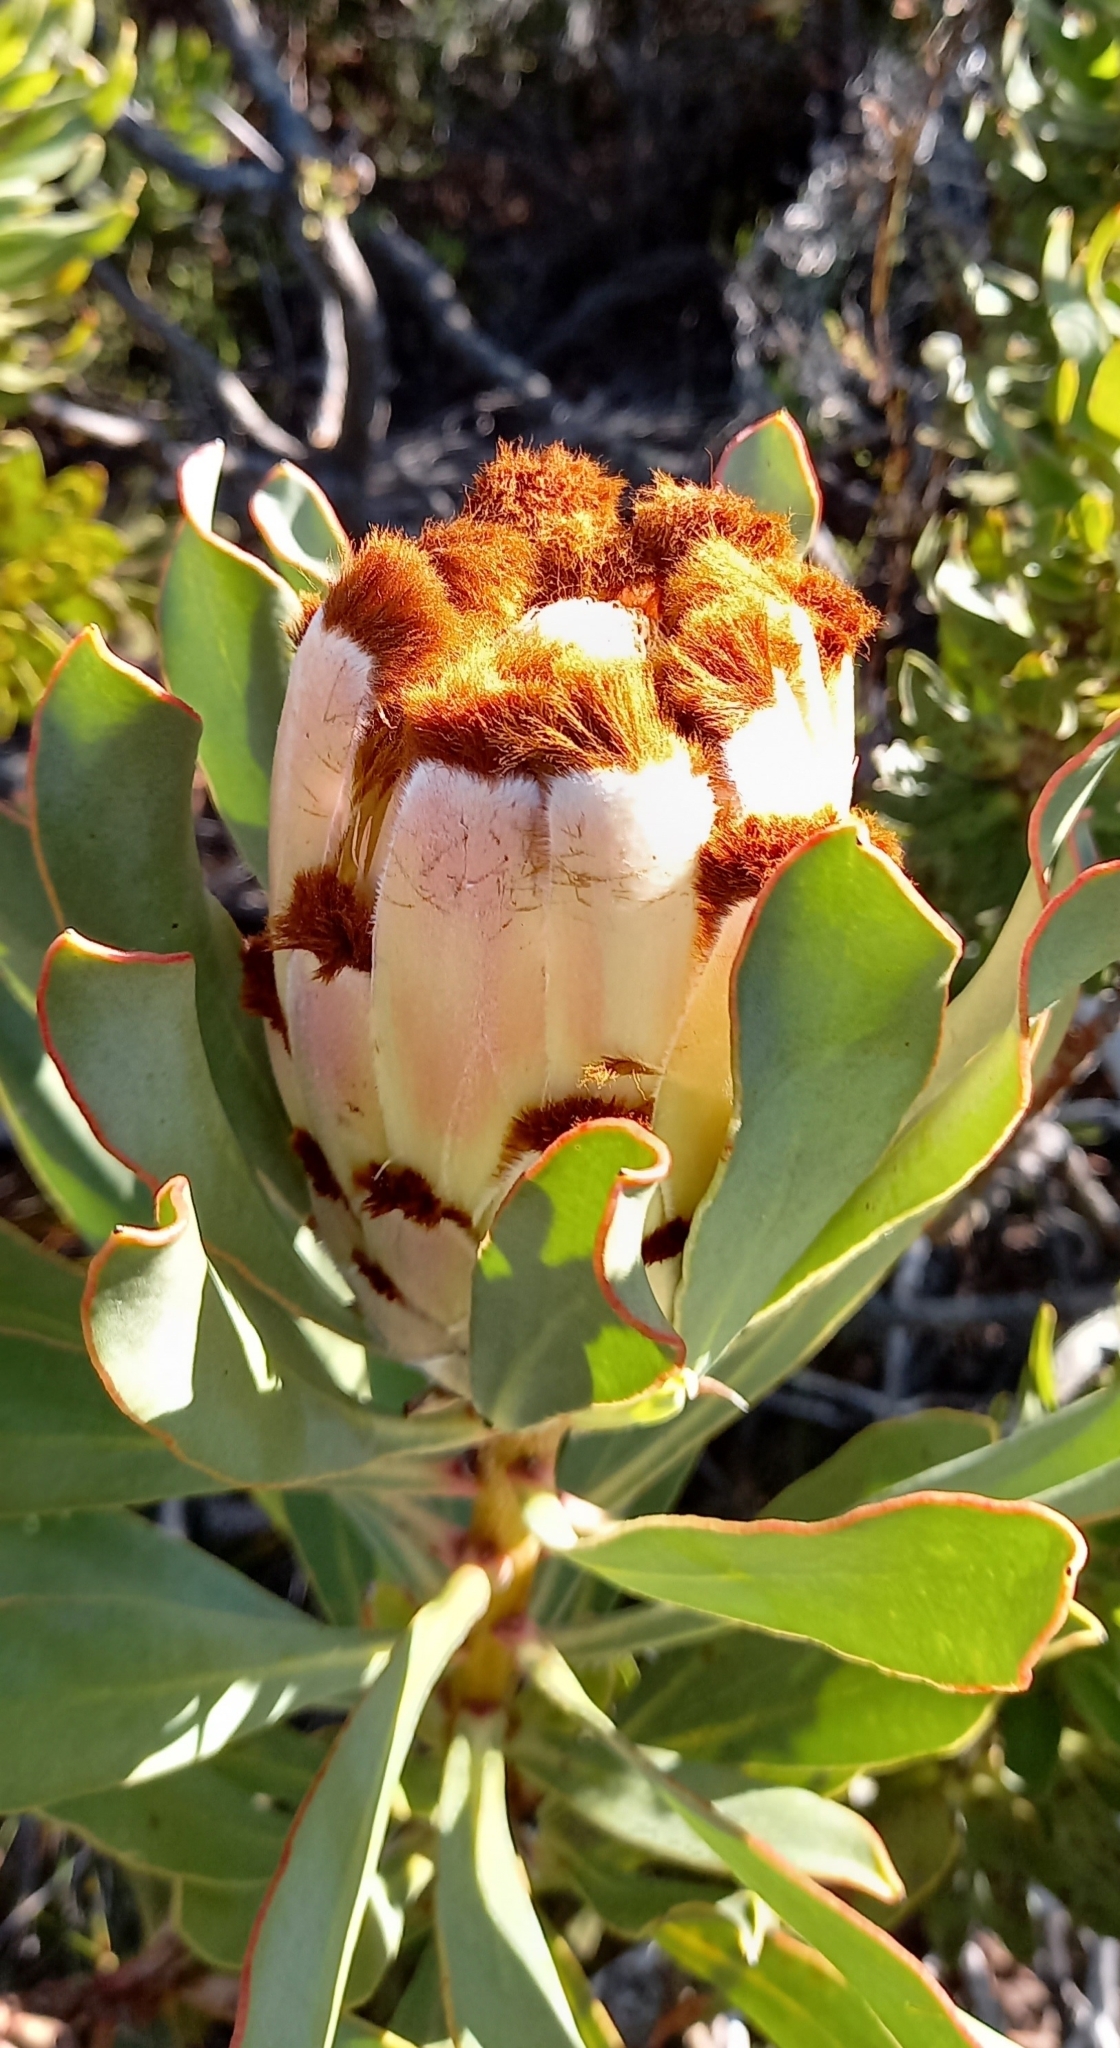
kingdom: Plantae
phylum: Tracheophyta
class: Magnoliopsida
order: Proteales
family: Proteaceae
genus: Protea
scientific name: Protea speciosa
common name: Brown-beard sugarbush
